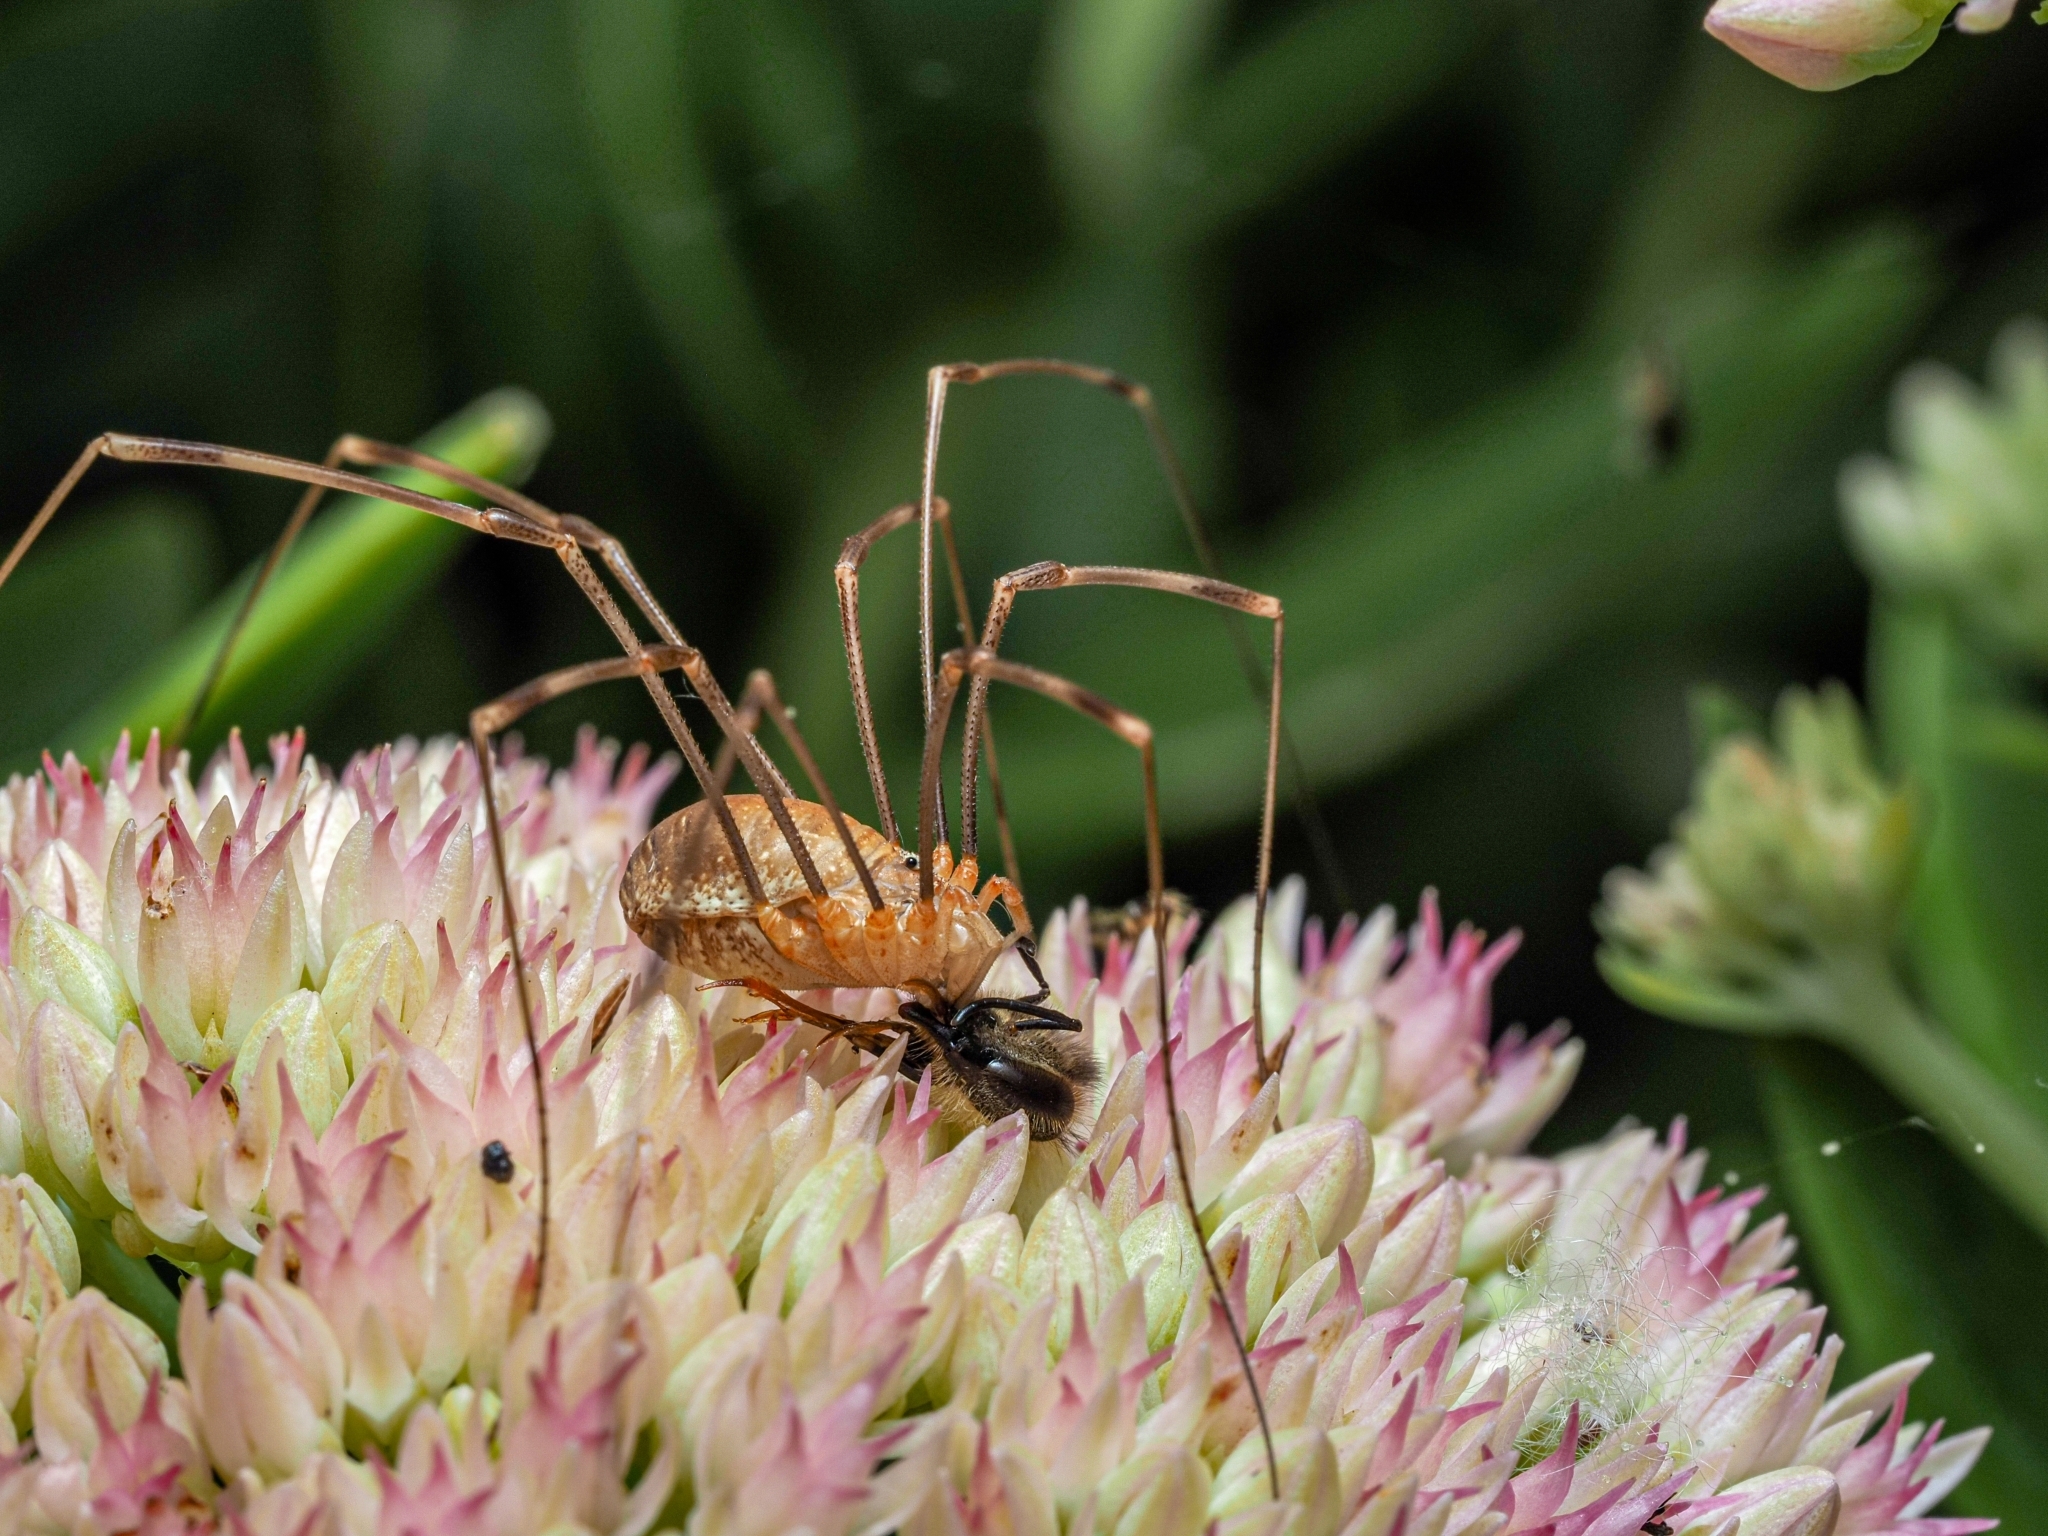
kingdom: Animalia
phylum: Arthropoda
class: Arachnida
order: Opiliones
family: Phalangiidae
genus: Opilio
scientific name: Opilio canestrinii
